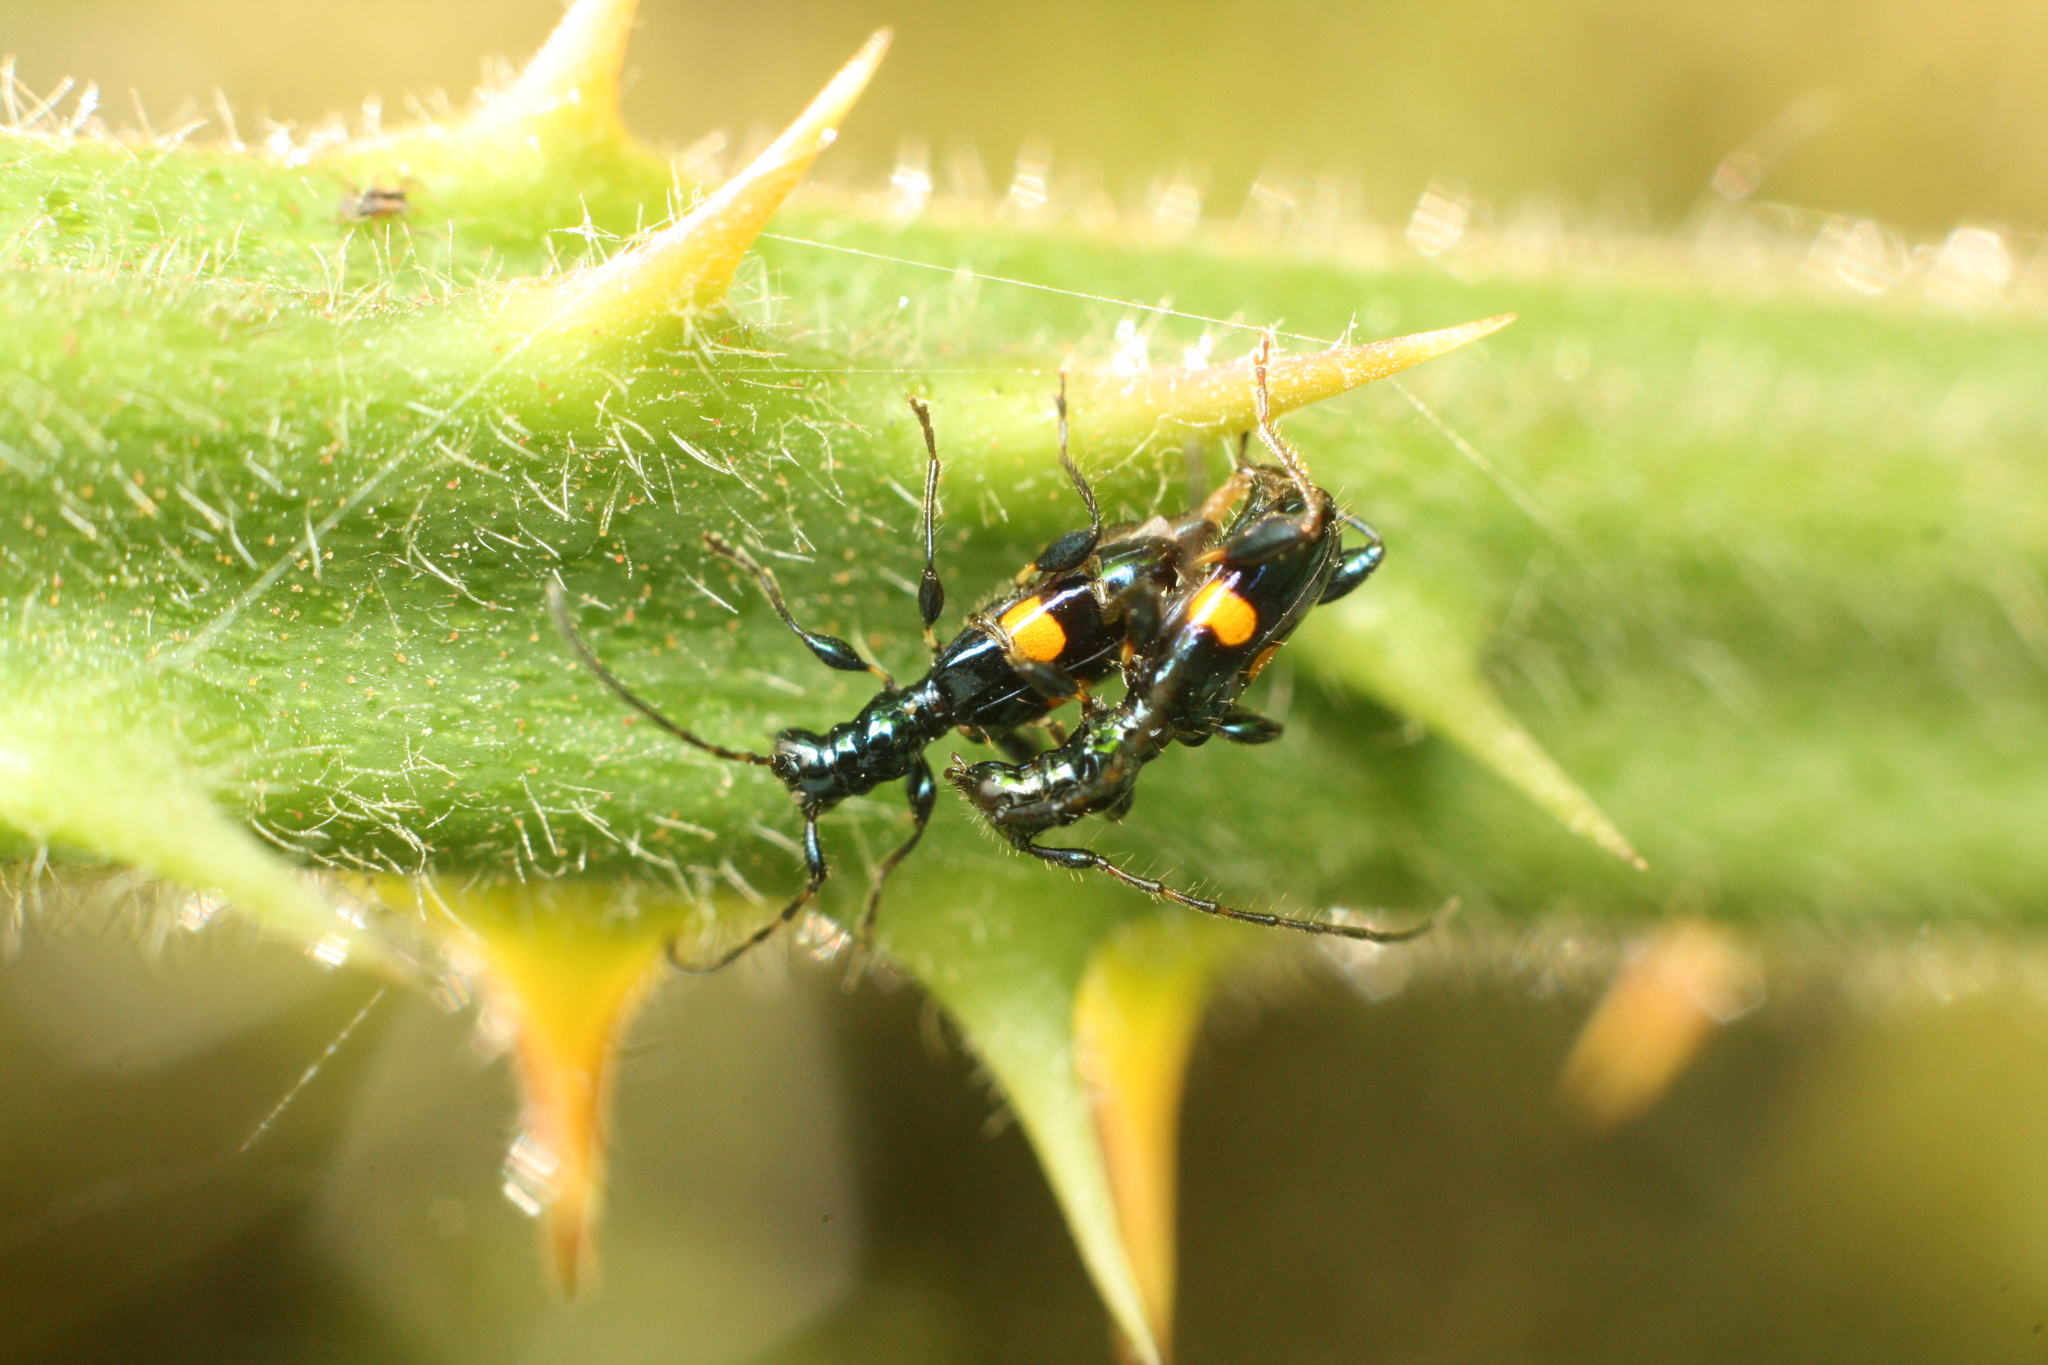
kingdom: Animalia
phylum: Arthropoda
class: Insecta
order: Coleoptera
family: Cerambycidae
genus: Zorion
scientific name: Zorion guttigerum
